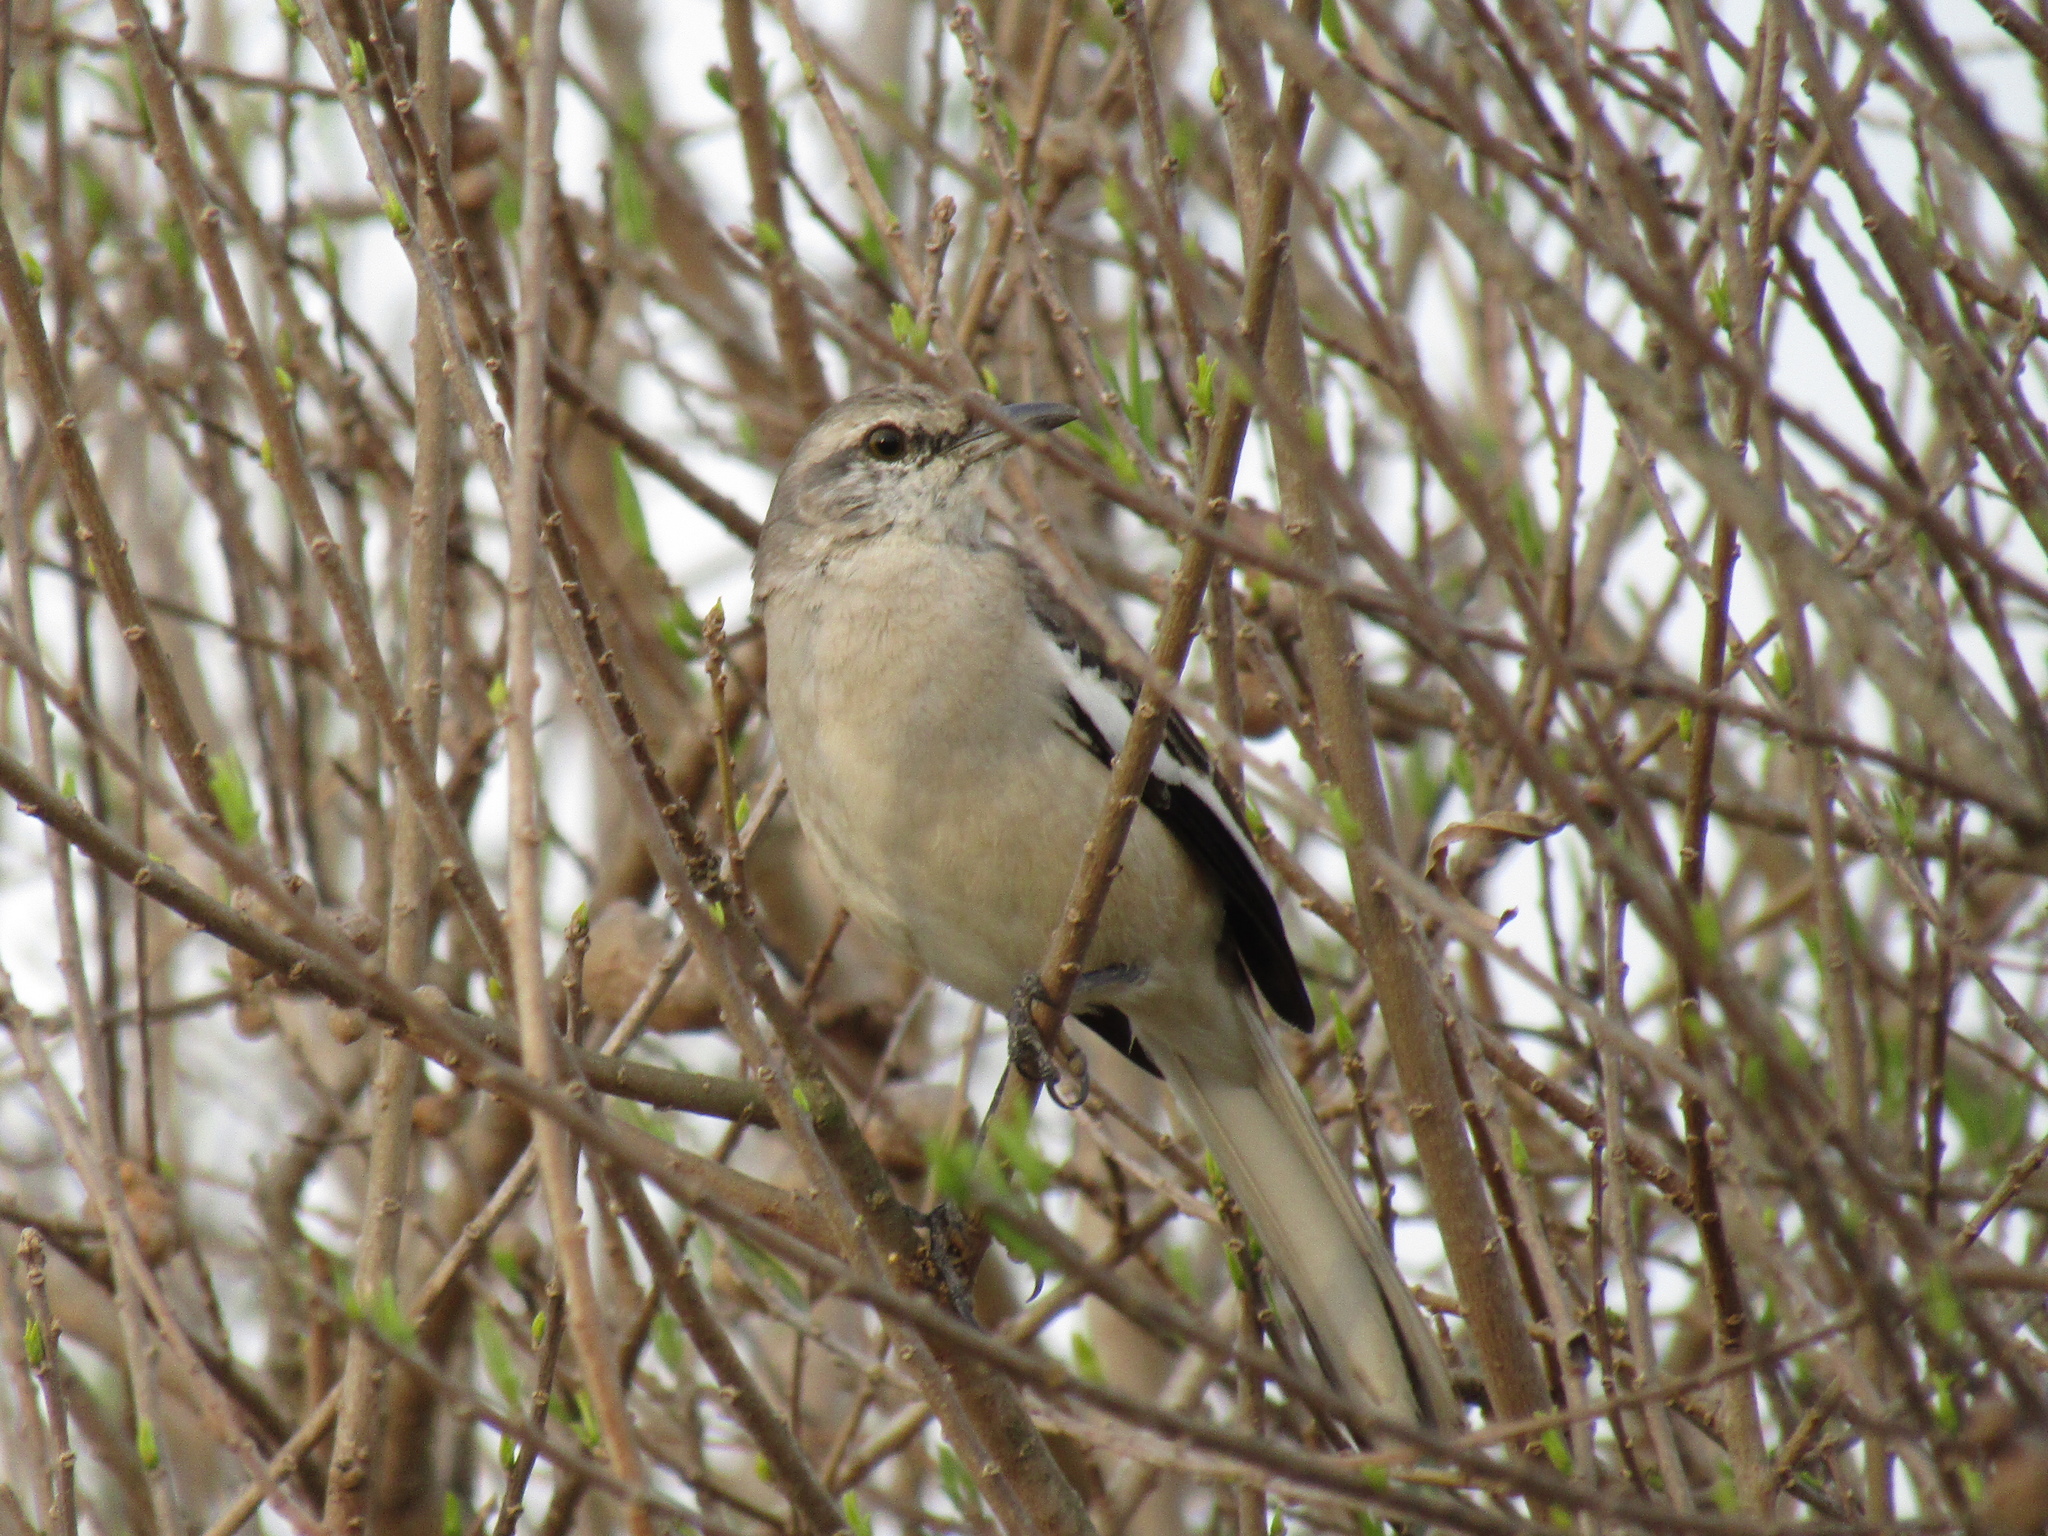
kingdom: Animalia
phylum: Chordata
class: Aves
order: Passeriformes
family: Mimidae
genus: Mimus
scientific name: Mimus triurus
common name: White-banded mockingbird
